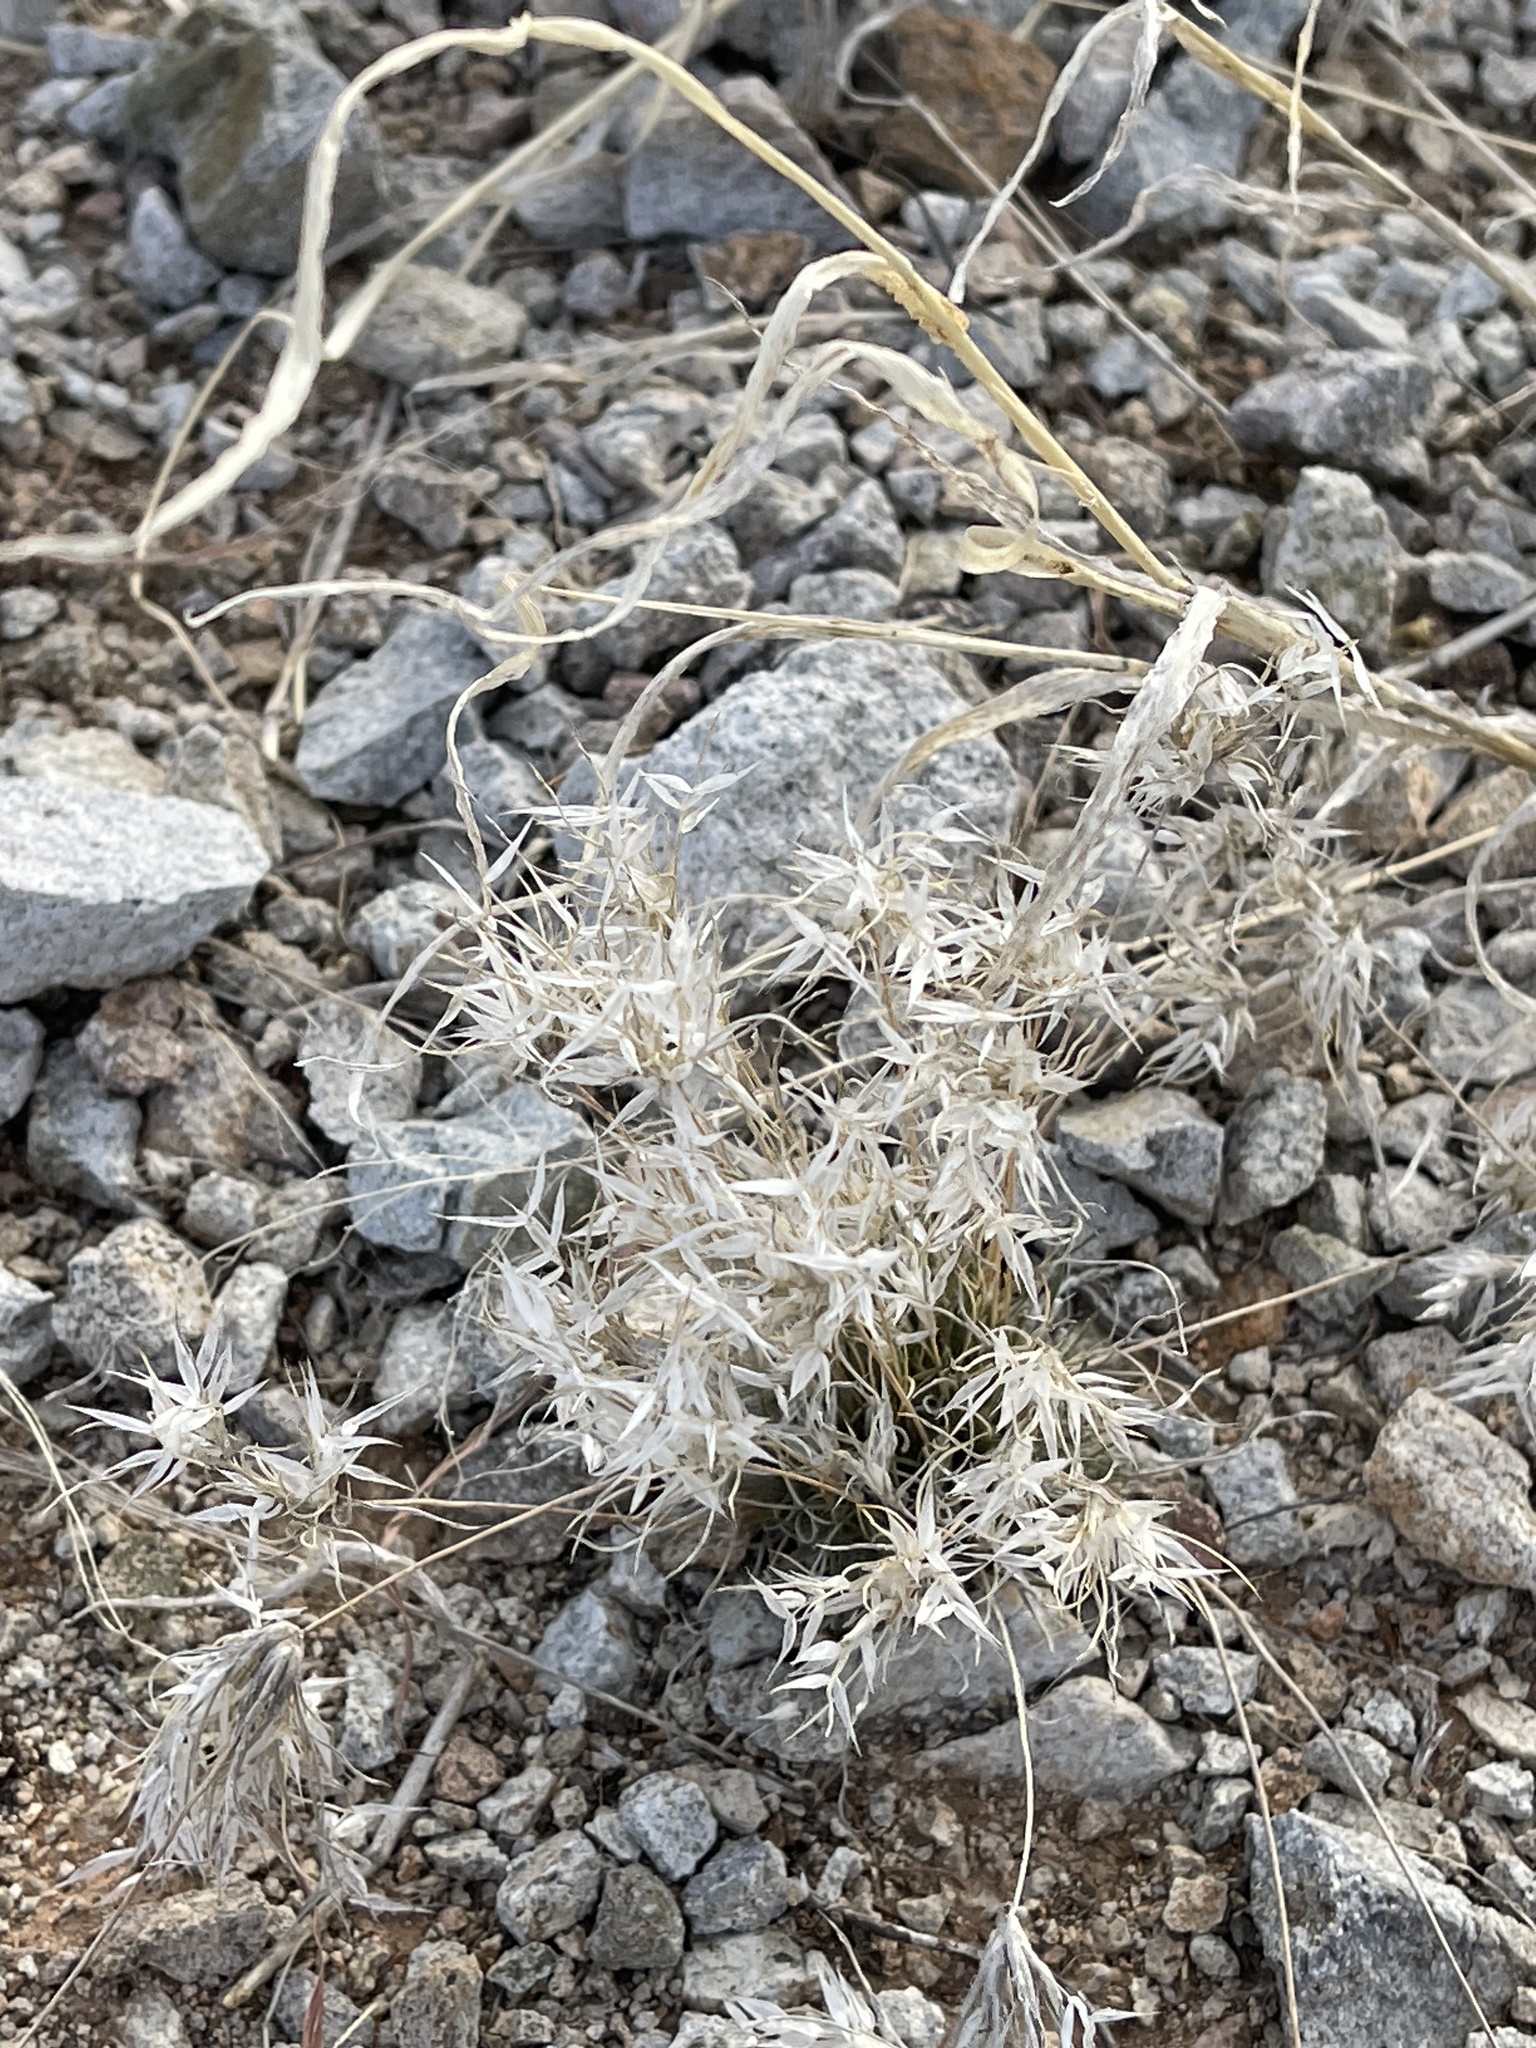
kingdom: Plantae
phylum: Tracheophyta
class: Liliopsida
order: Poales
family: Poaceae
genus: Dasyochloa
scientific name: Dasyochloa pulchella
